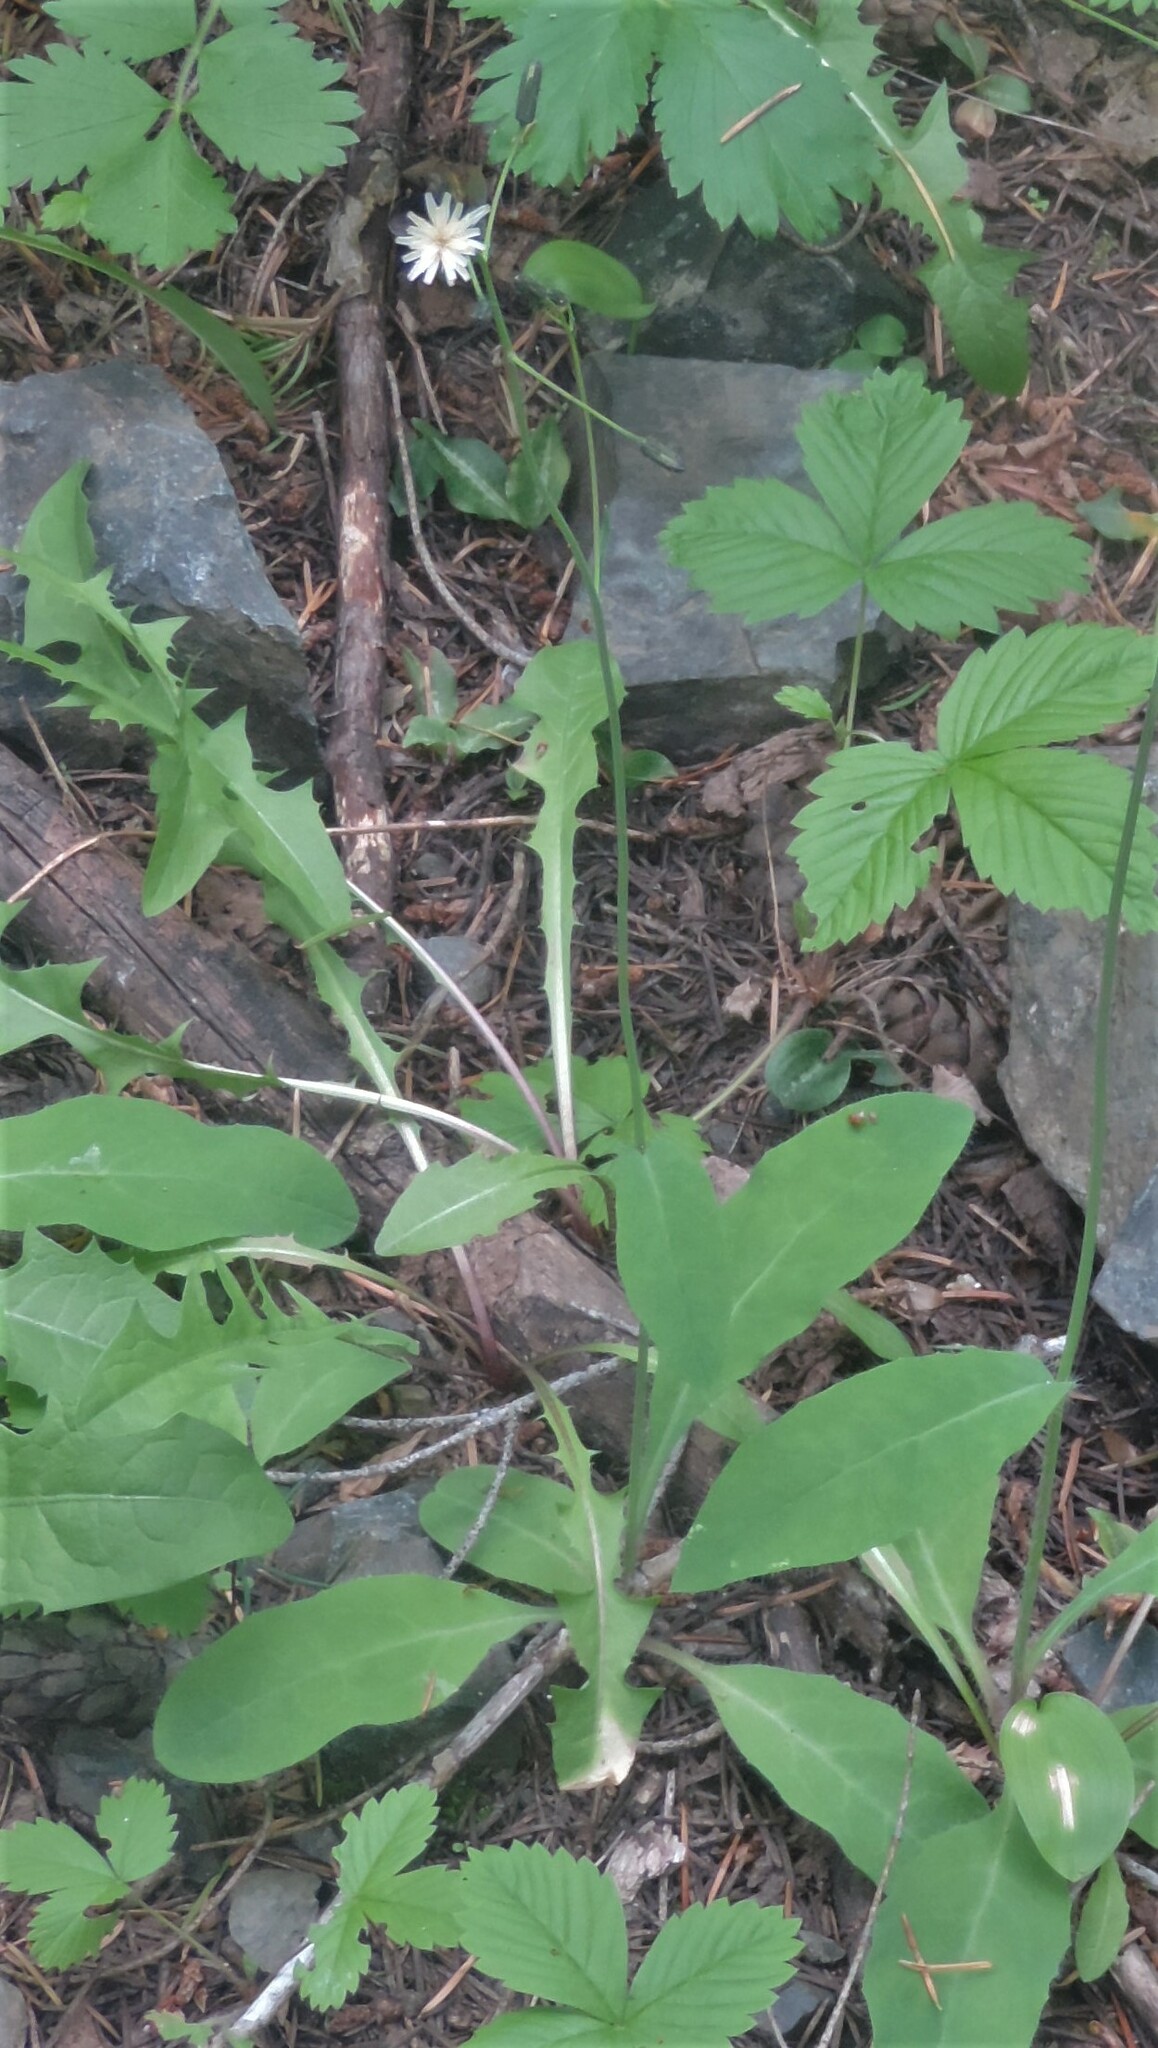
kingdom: Plantae
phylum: Tracheophyta
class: Magnoliopsida
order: Asterales
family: Asteraceae
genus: Hieracium
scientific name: Hieracium albiflorum
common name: White hawkweed
